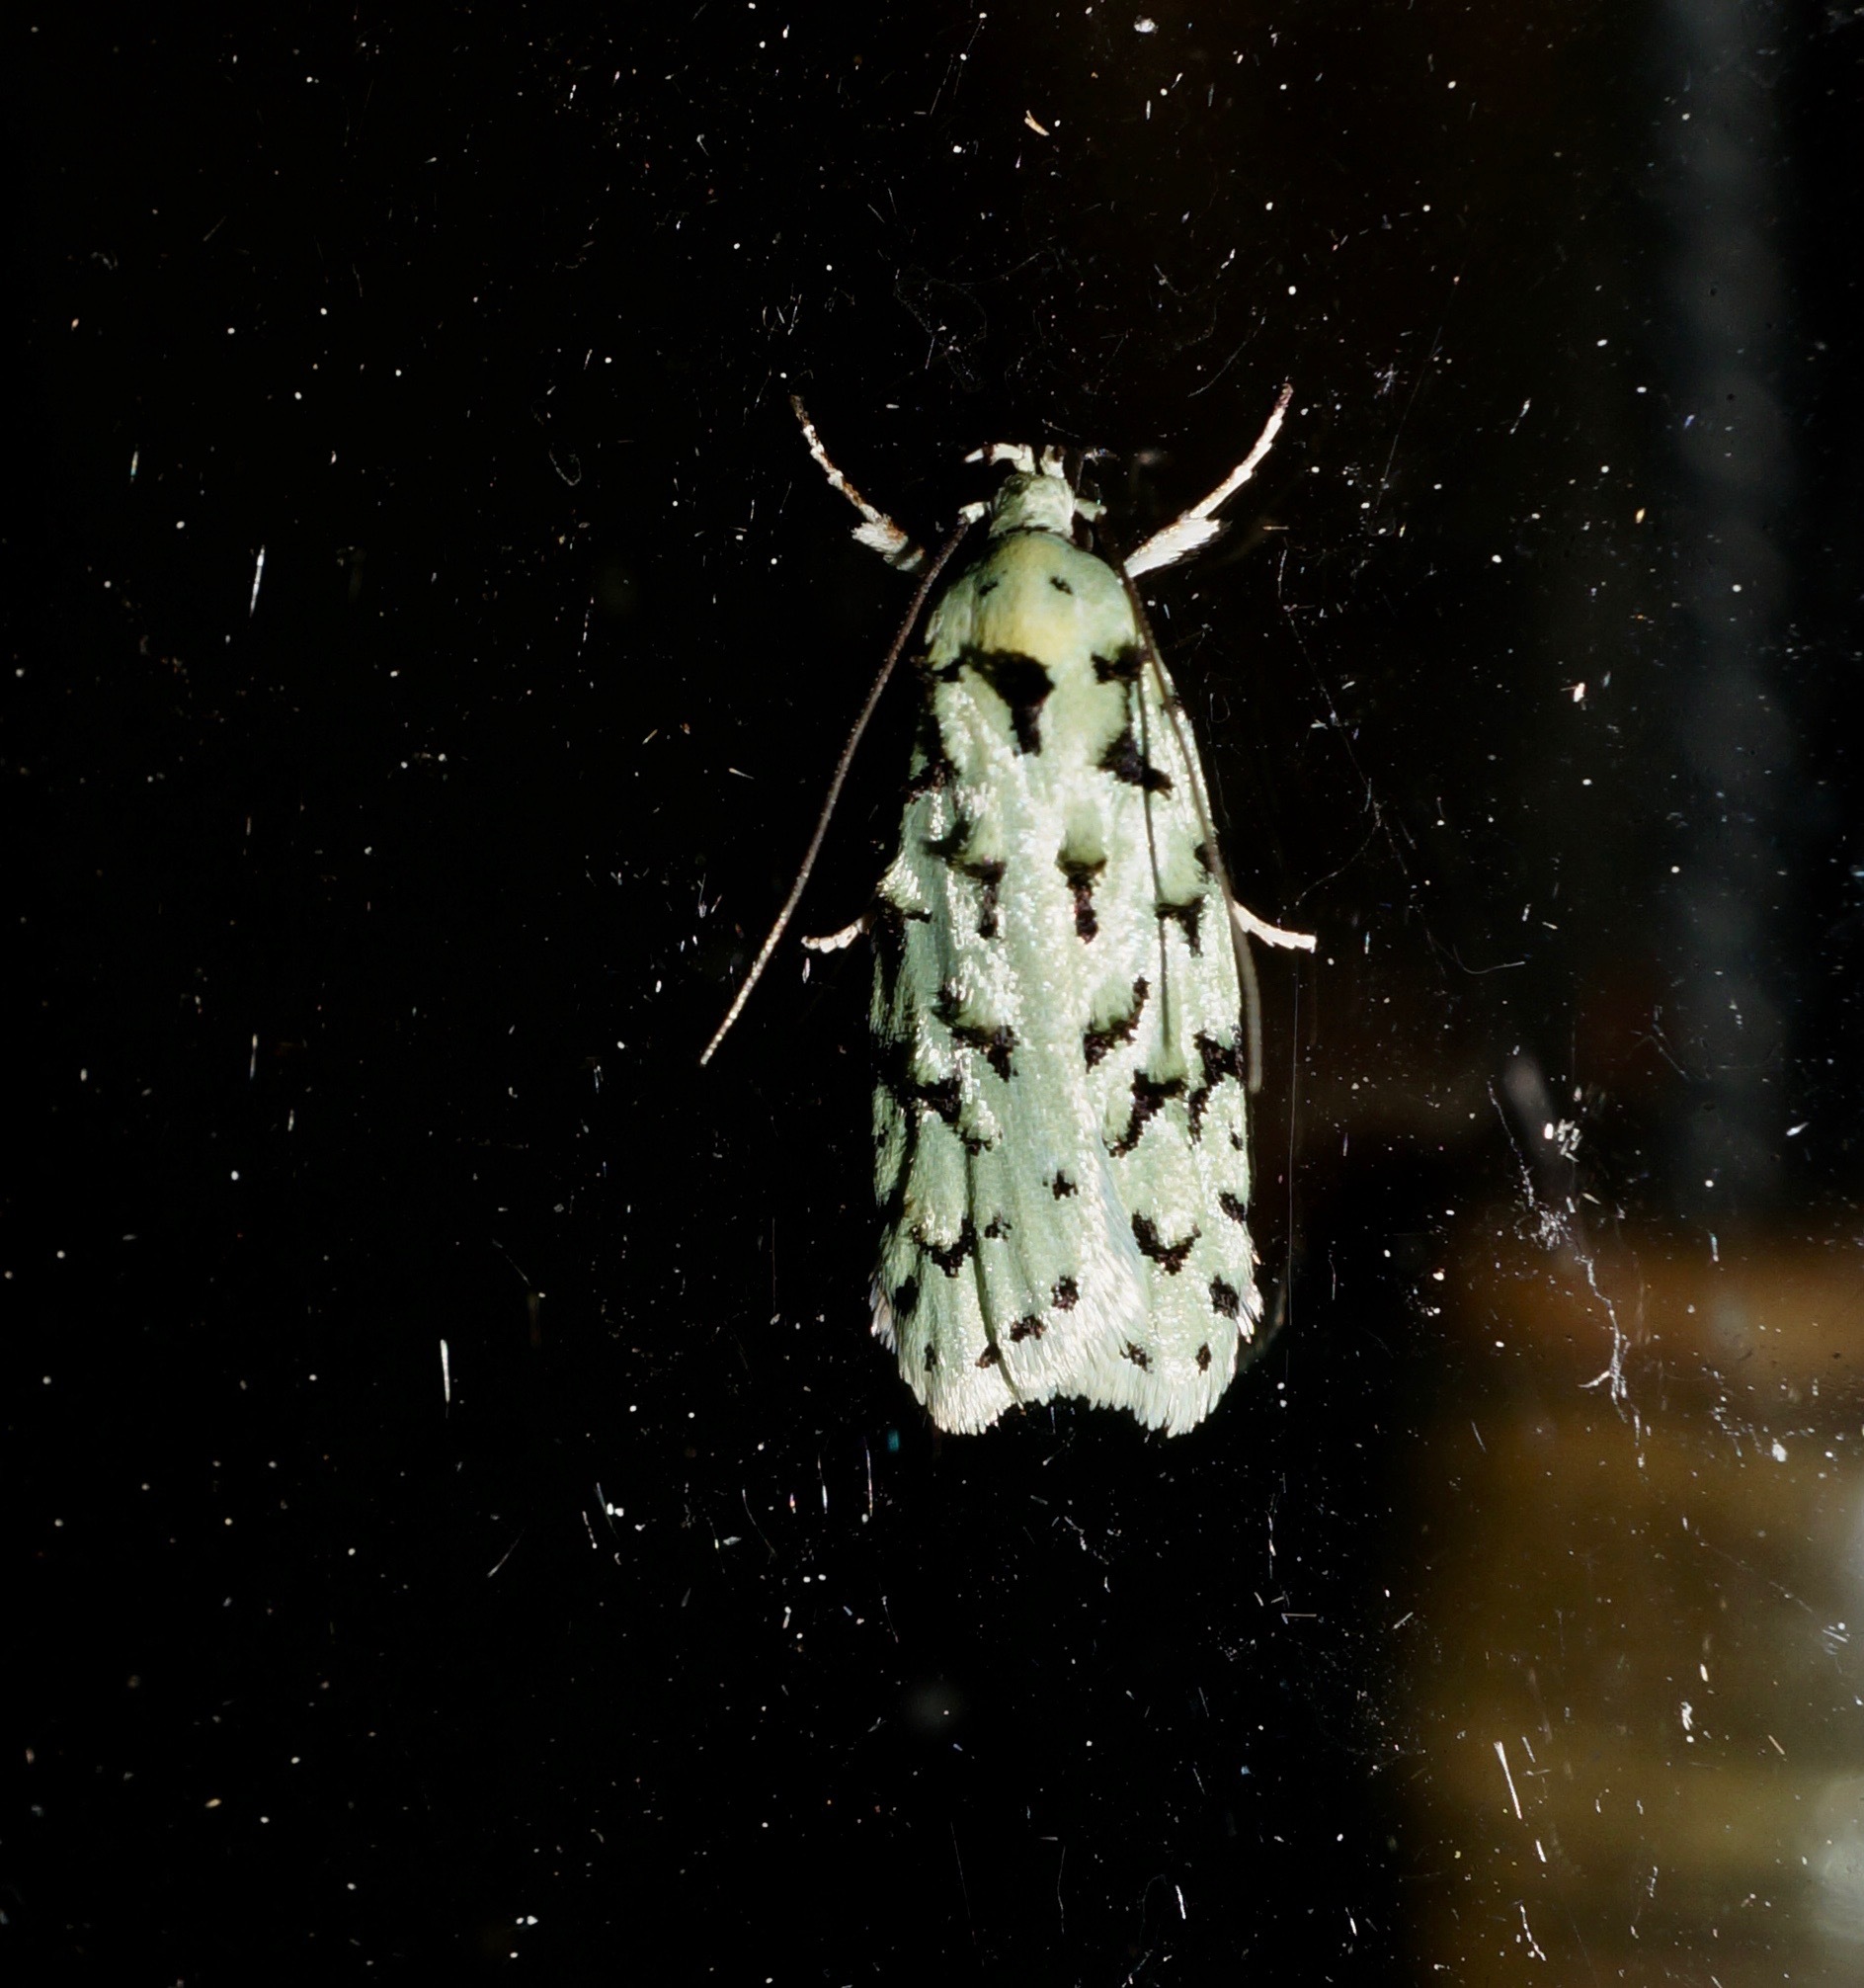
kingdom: Animalia
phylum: Arthropoda
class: Insecta
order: Lepidoptera
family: Oecophoridae
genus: Izatha
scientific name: Izatha peroneanella
